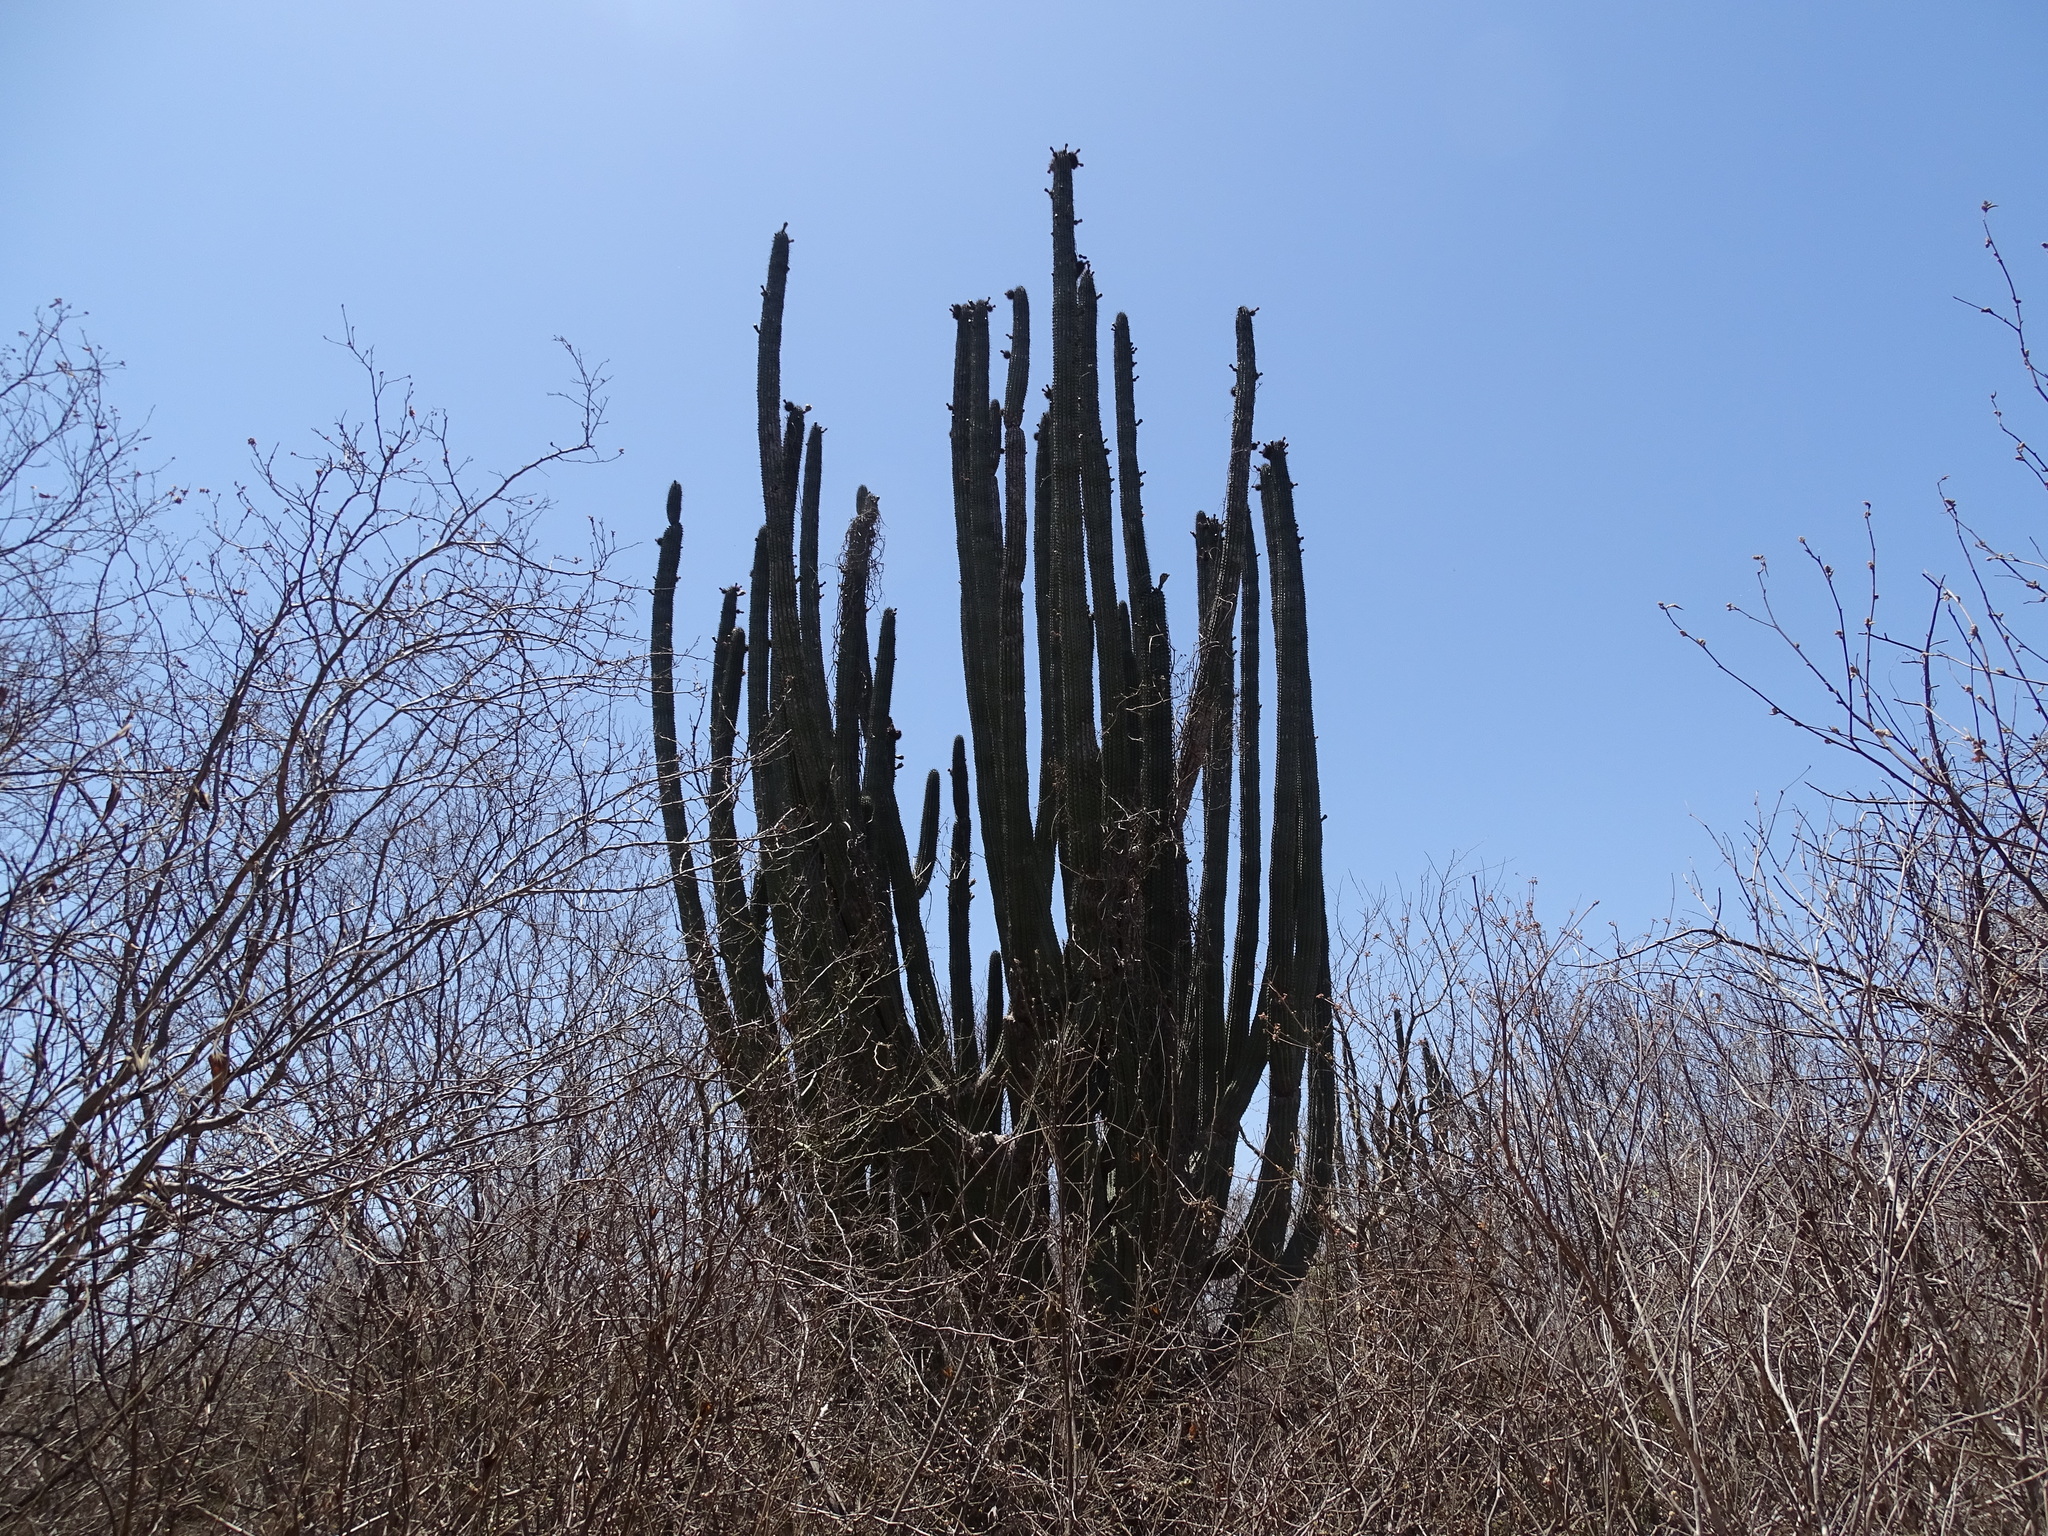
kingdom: Plantae
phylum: Tracheophyta
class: Magnoliopsida
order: Caryophyllales
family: Cactaceae
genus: Pachycereus
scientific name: Pachycereus pecten-aboriginum
